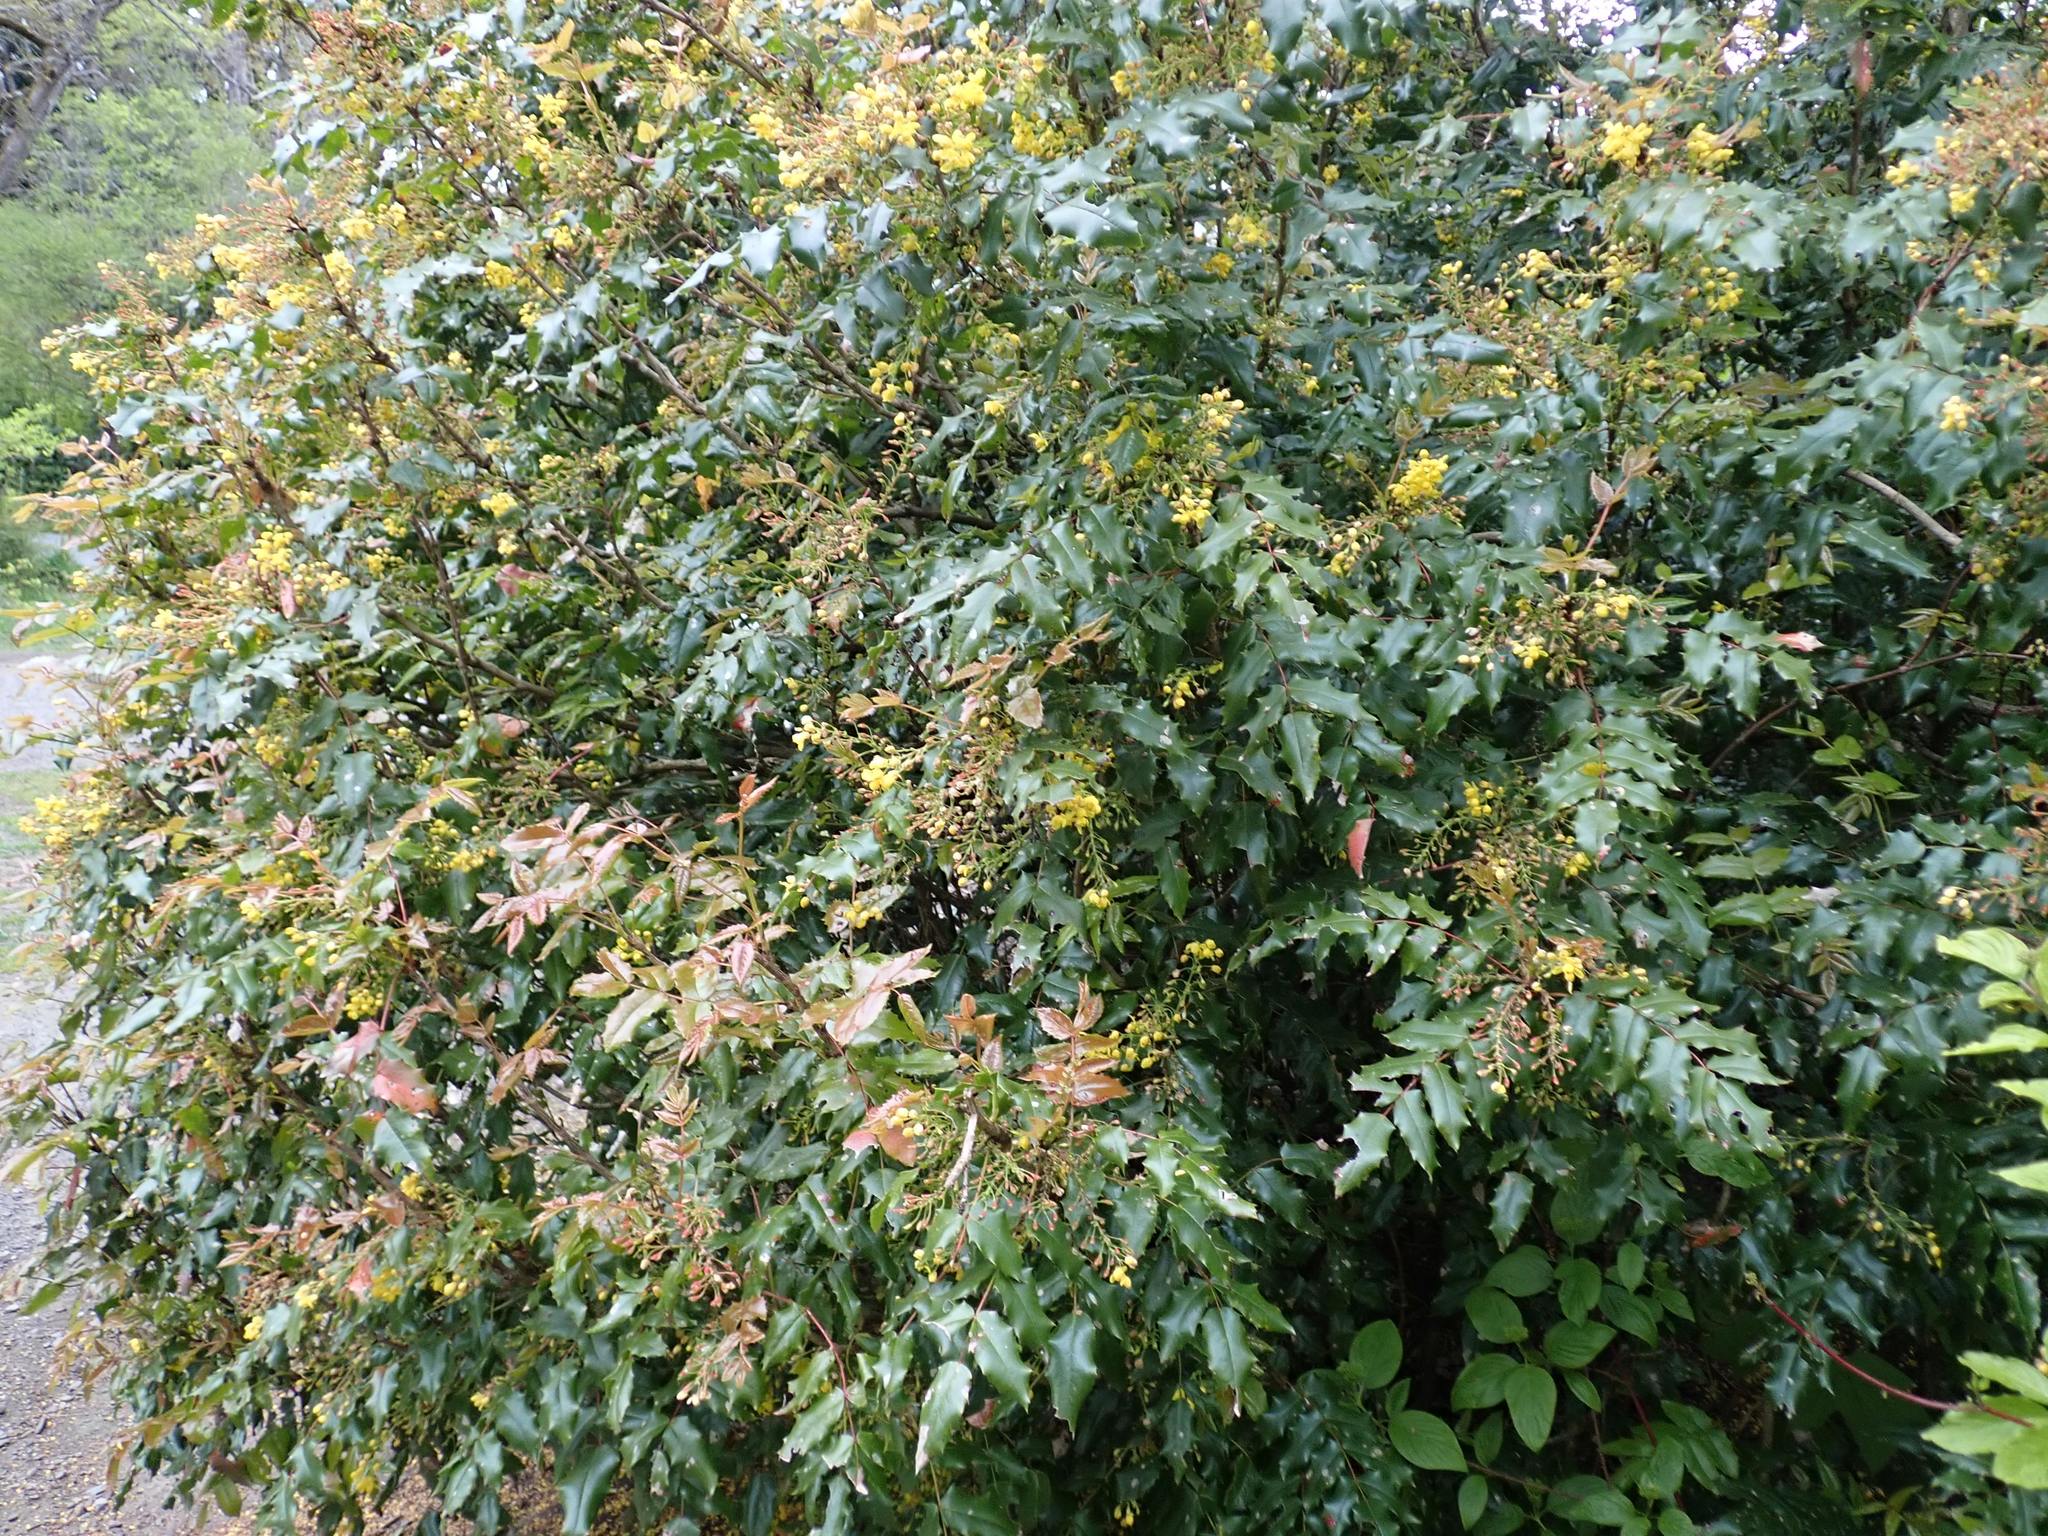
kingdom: Plantae
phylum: Tracheophyta
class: Magnoliopsida
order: Ranunculales
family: Berberidaceae
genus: Mahonia
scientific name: Mahonia aquifolium
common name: Oregon-grape
